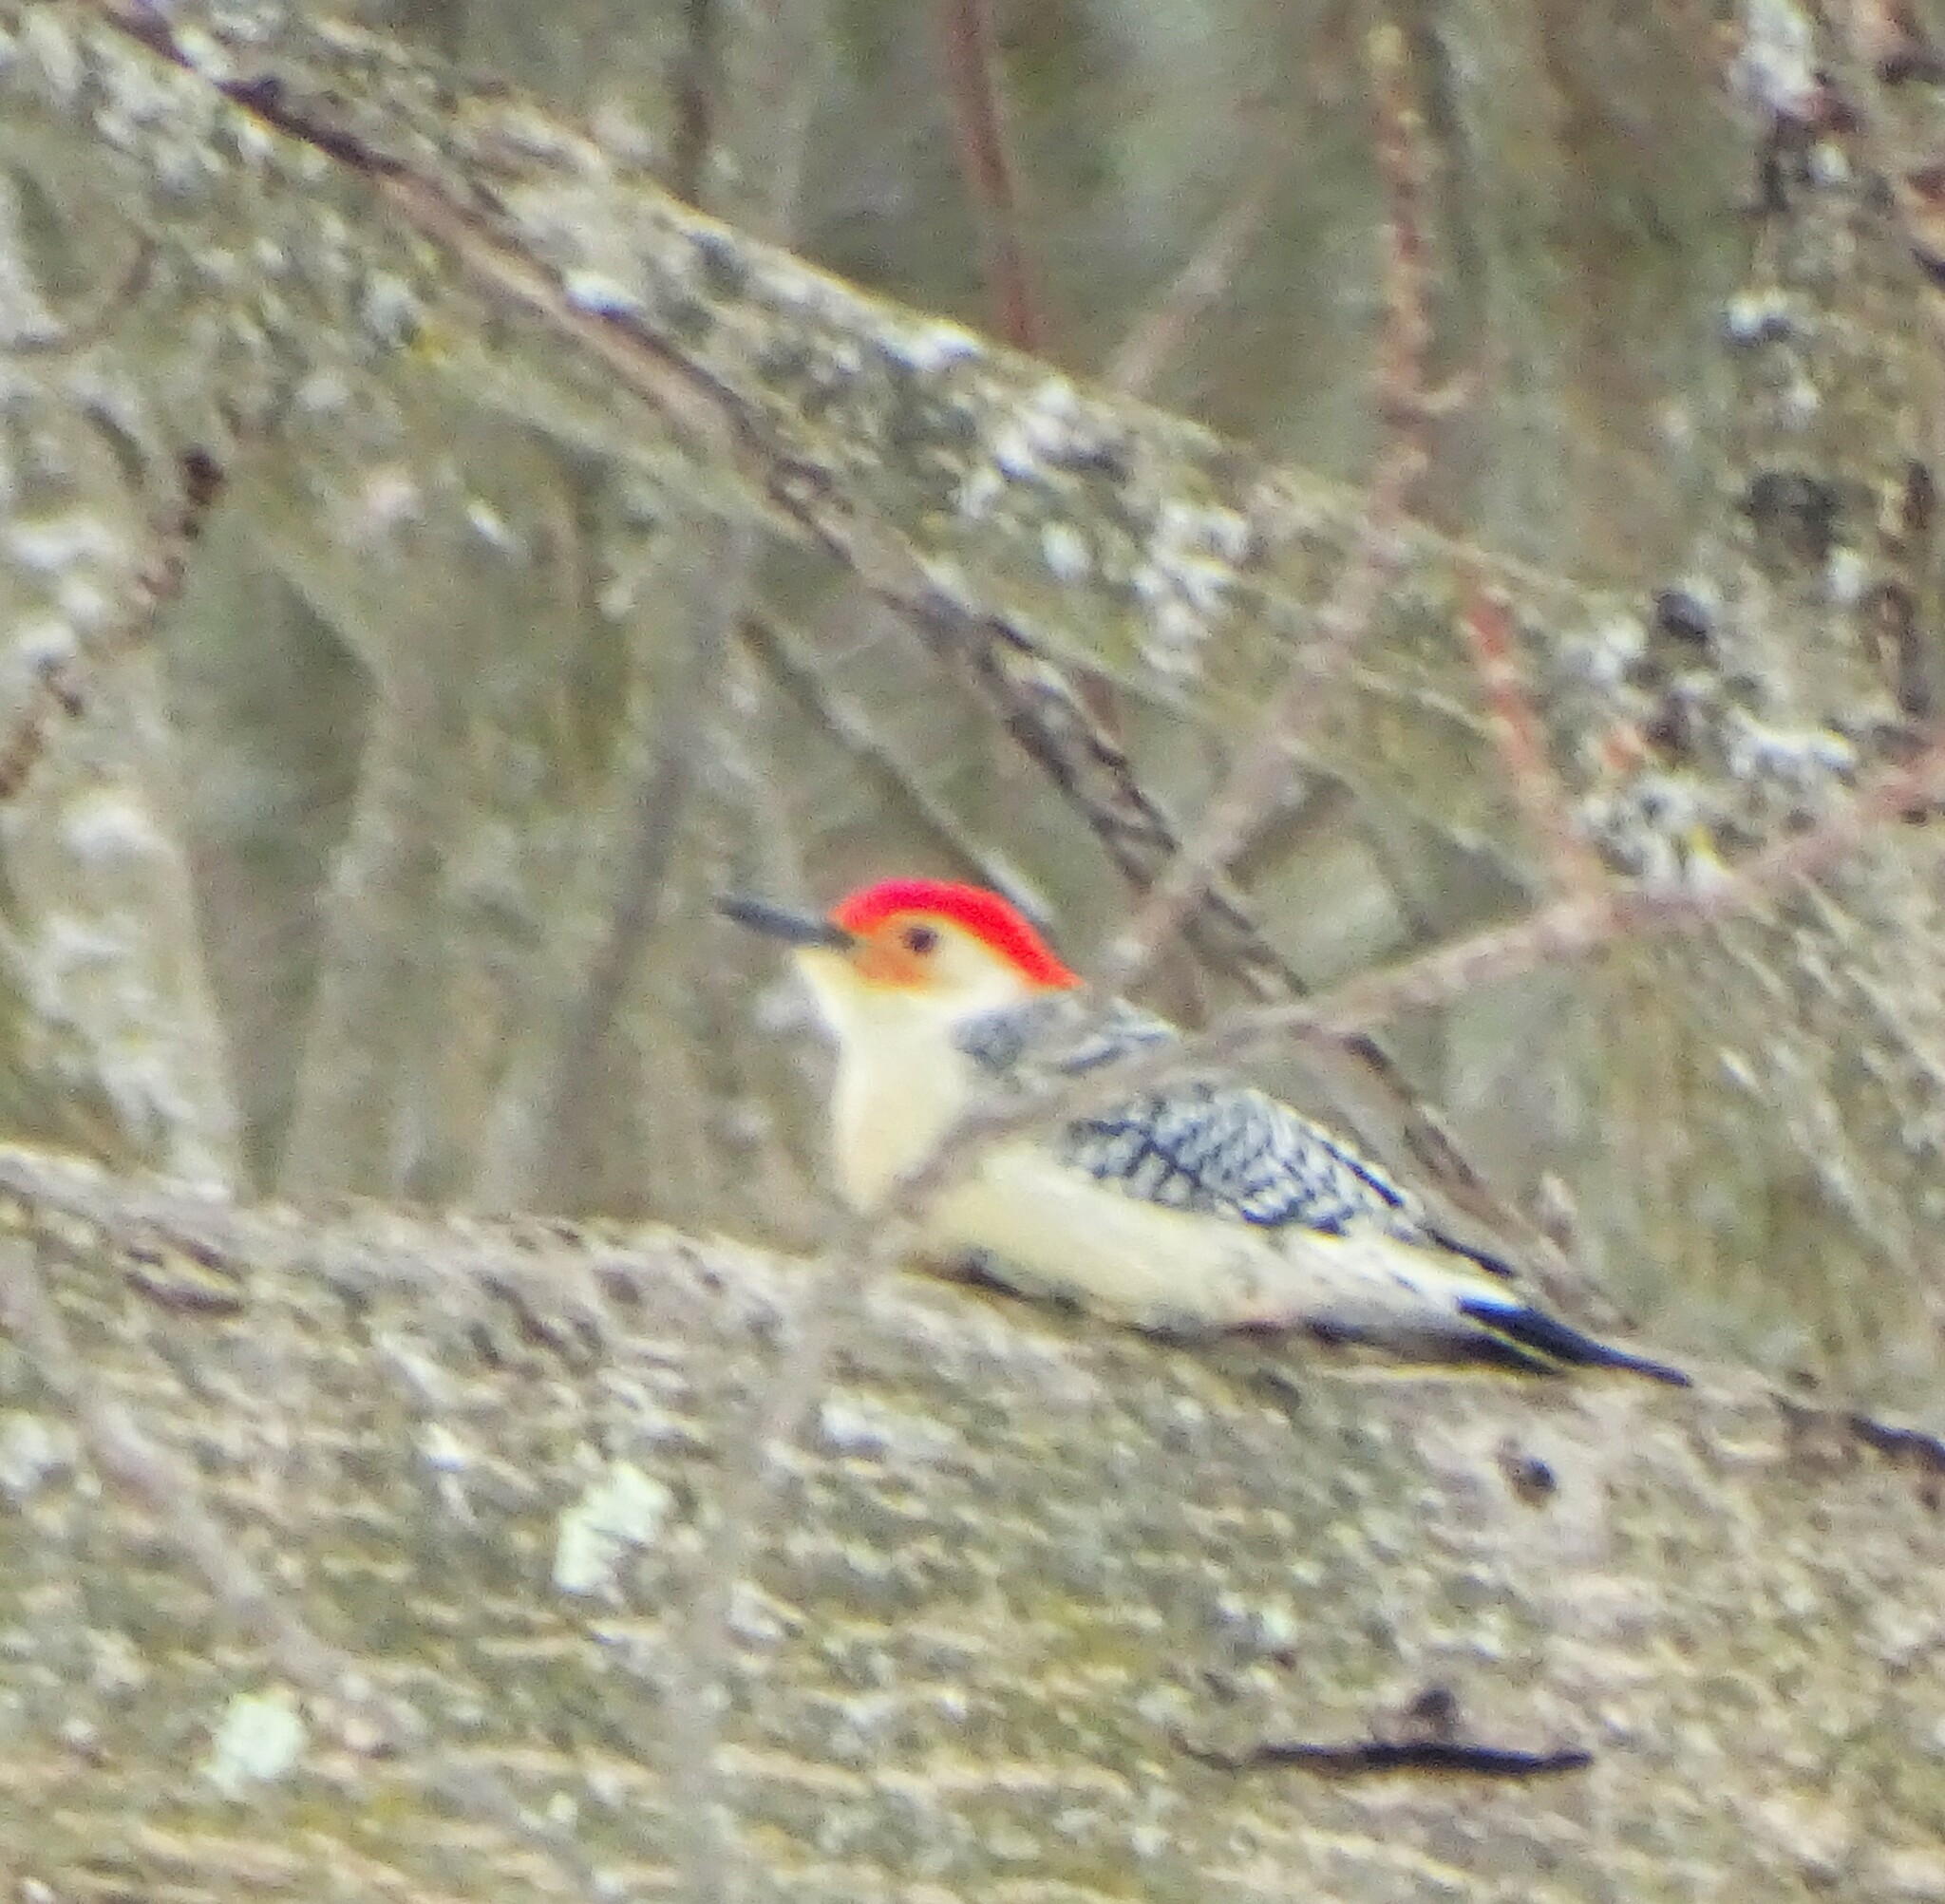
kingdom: Animalia
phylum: Chordata
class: Aves
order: Piciformes
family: Picidae
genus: Melanerpes
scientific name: Melanerpes carolinus
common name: Red-bellied woodpecker
